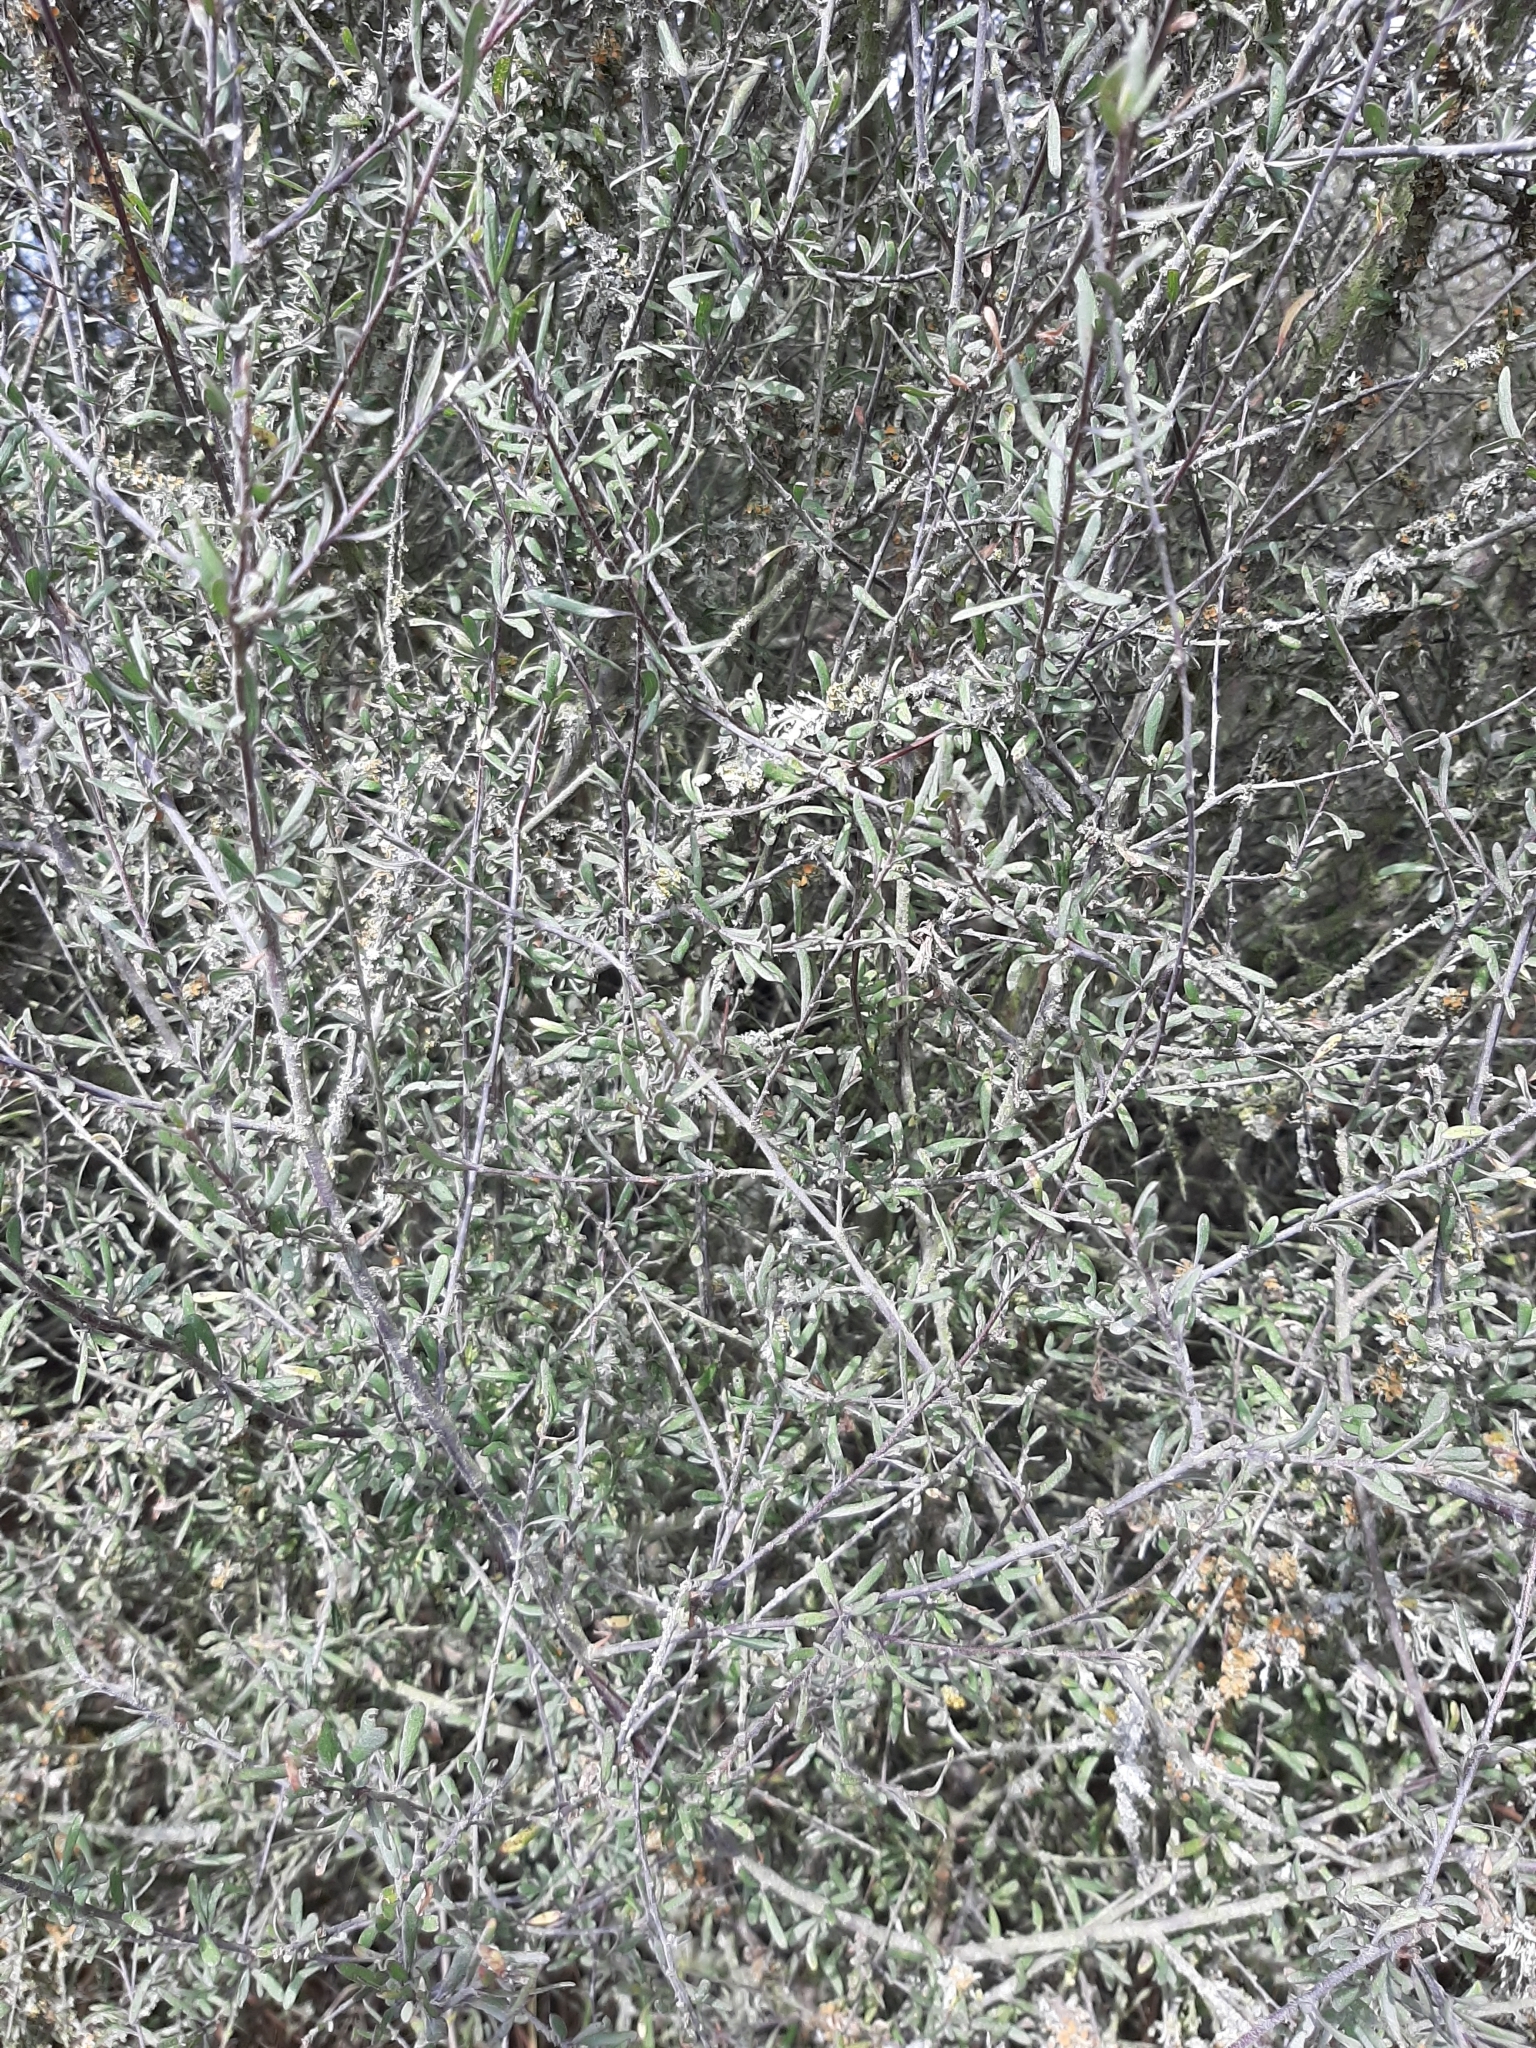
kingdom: Plantae
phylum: Tracheophyta
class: Magnoliopsida
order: Malvales
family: Malvaceae
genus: Plagianthus
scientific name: Plagianthus divaricatus
